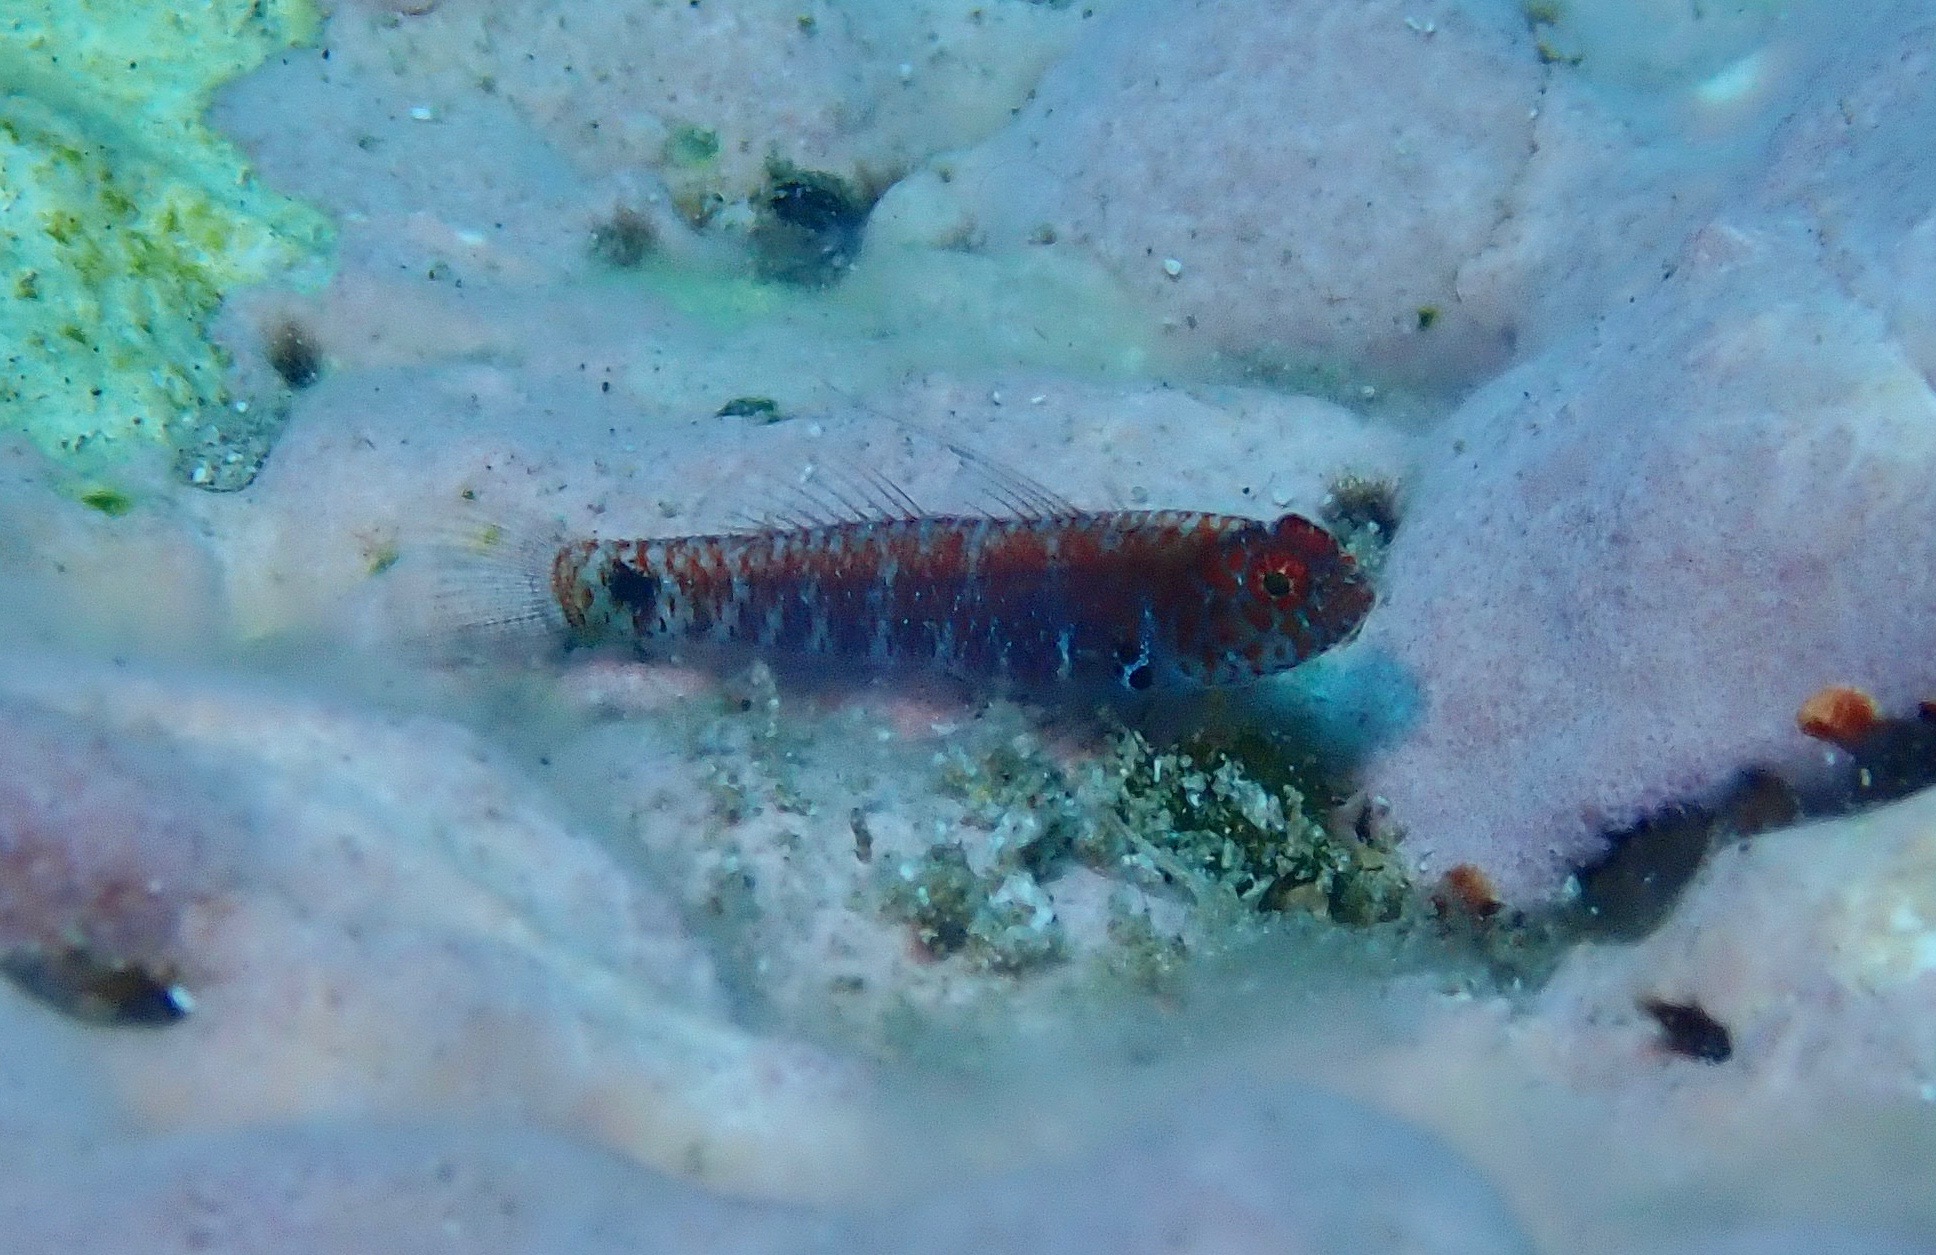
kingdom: Animalia
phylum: Chordata
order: Perciformes
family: Gobiidae
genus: Eviota
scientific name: Eviota hoesei
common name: Doug's eviota
